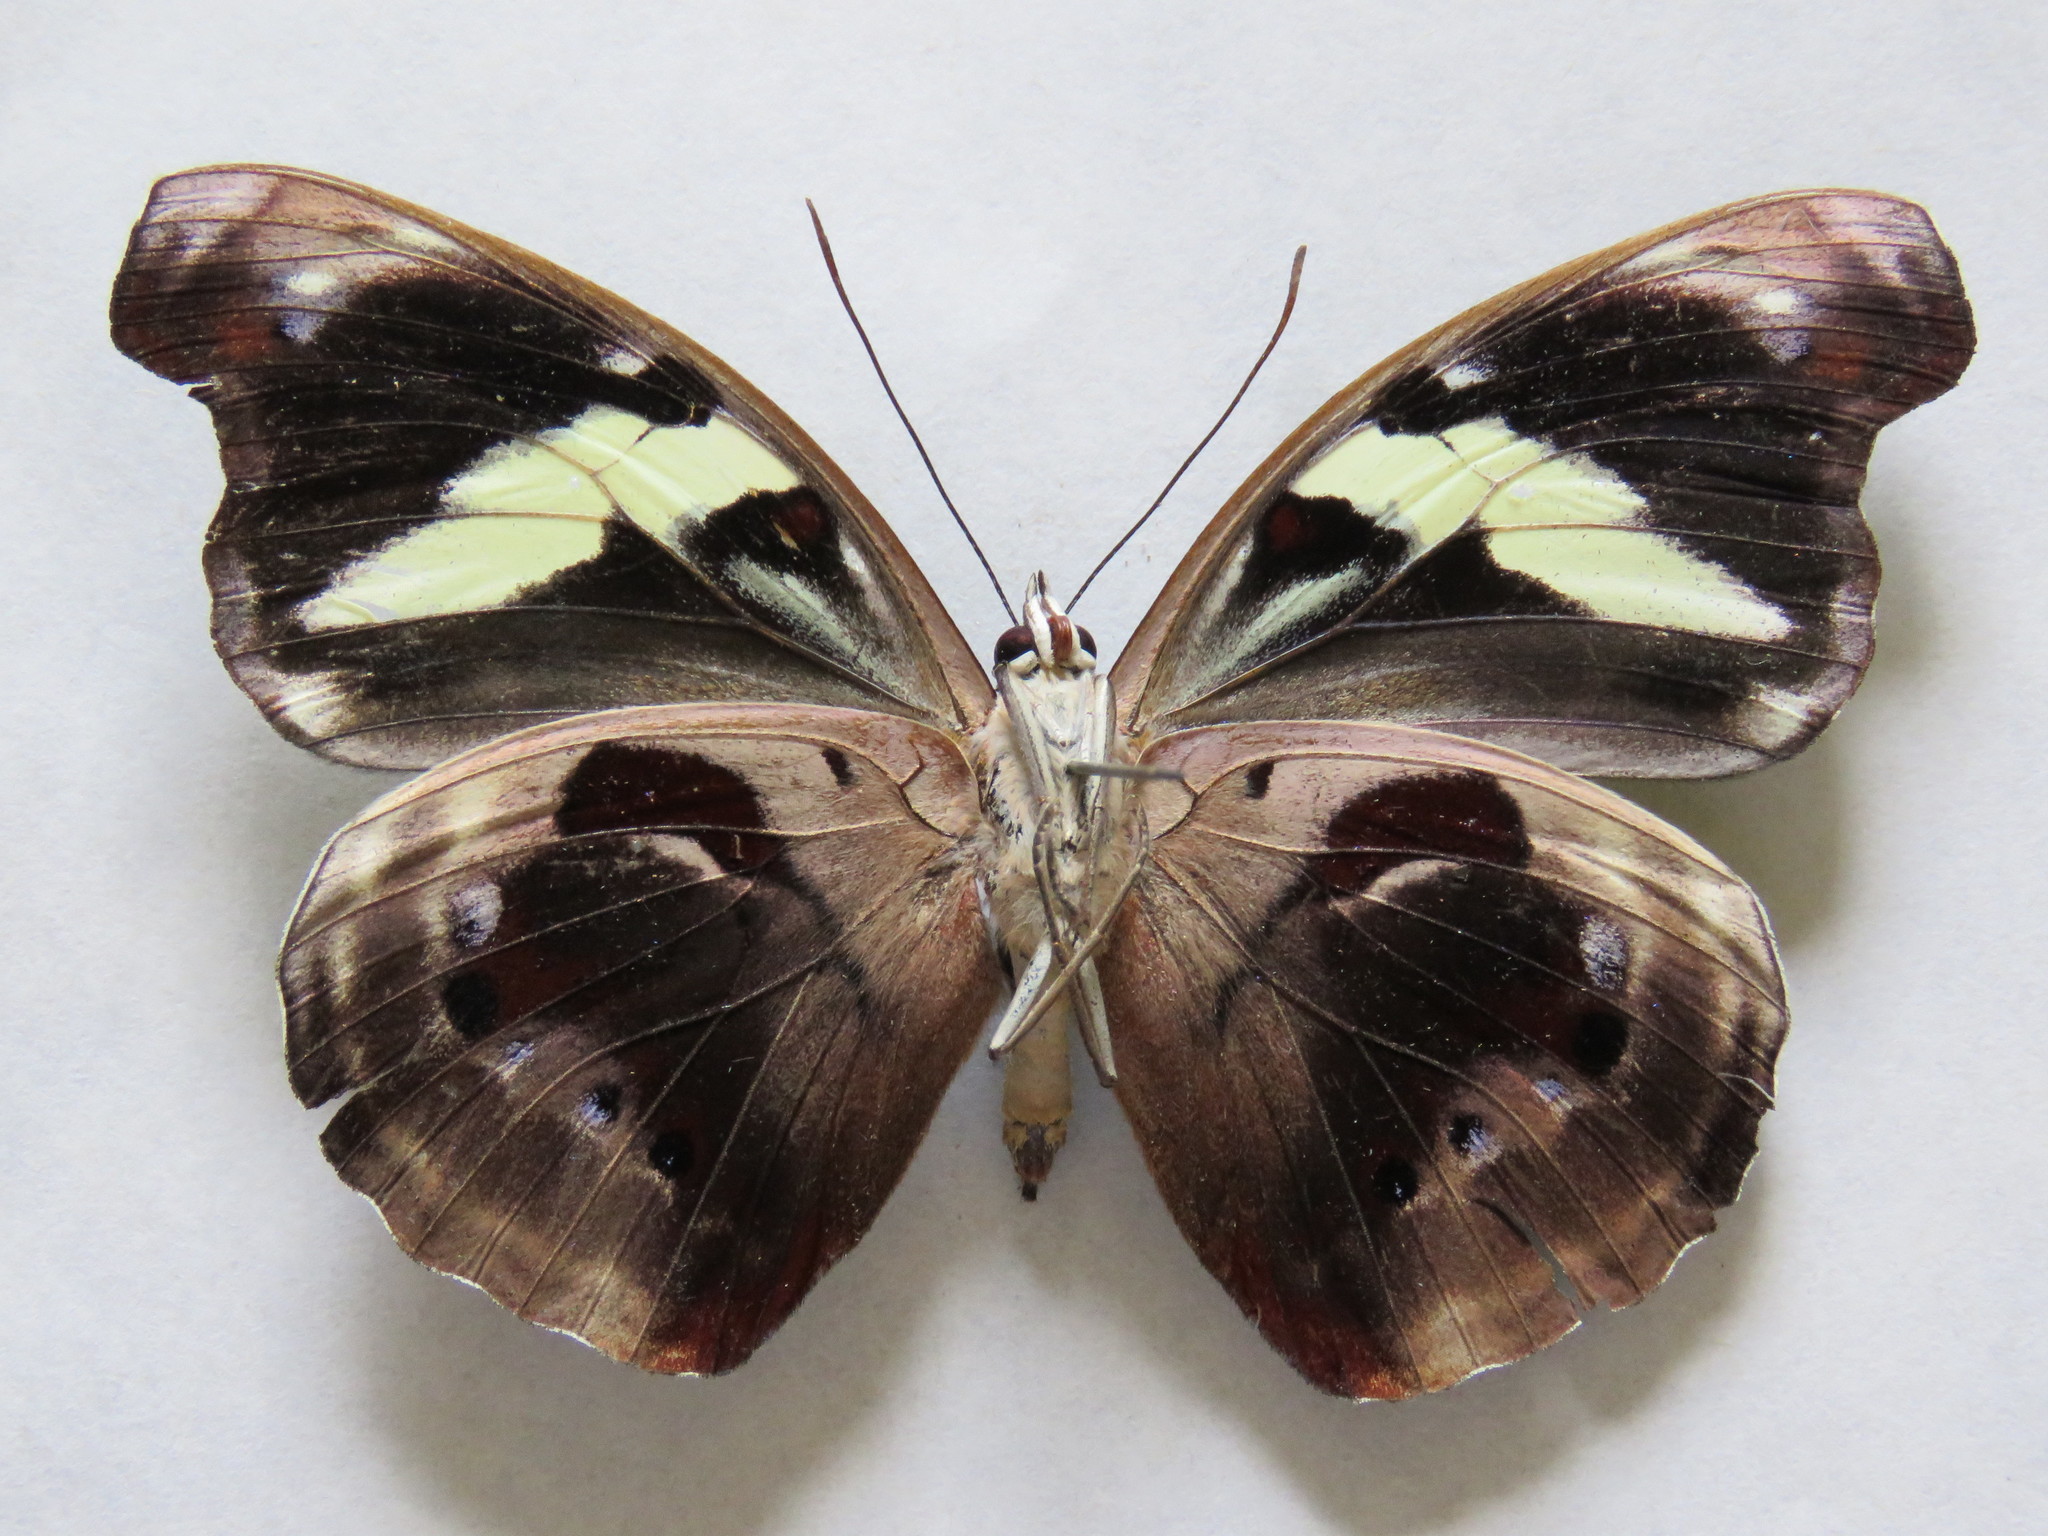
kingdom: Animalia
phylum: Arthropoda
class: Insecta
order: Lepidoptera
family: Nymphalidae
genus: Catonephele
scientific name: Catonephele numilia
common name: Blue-frosted banner
